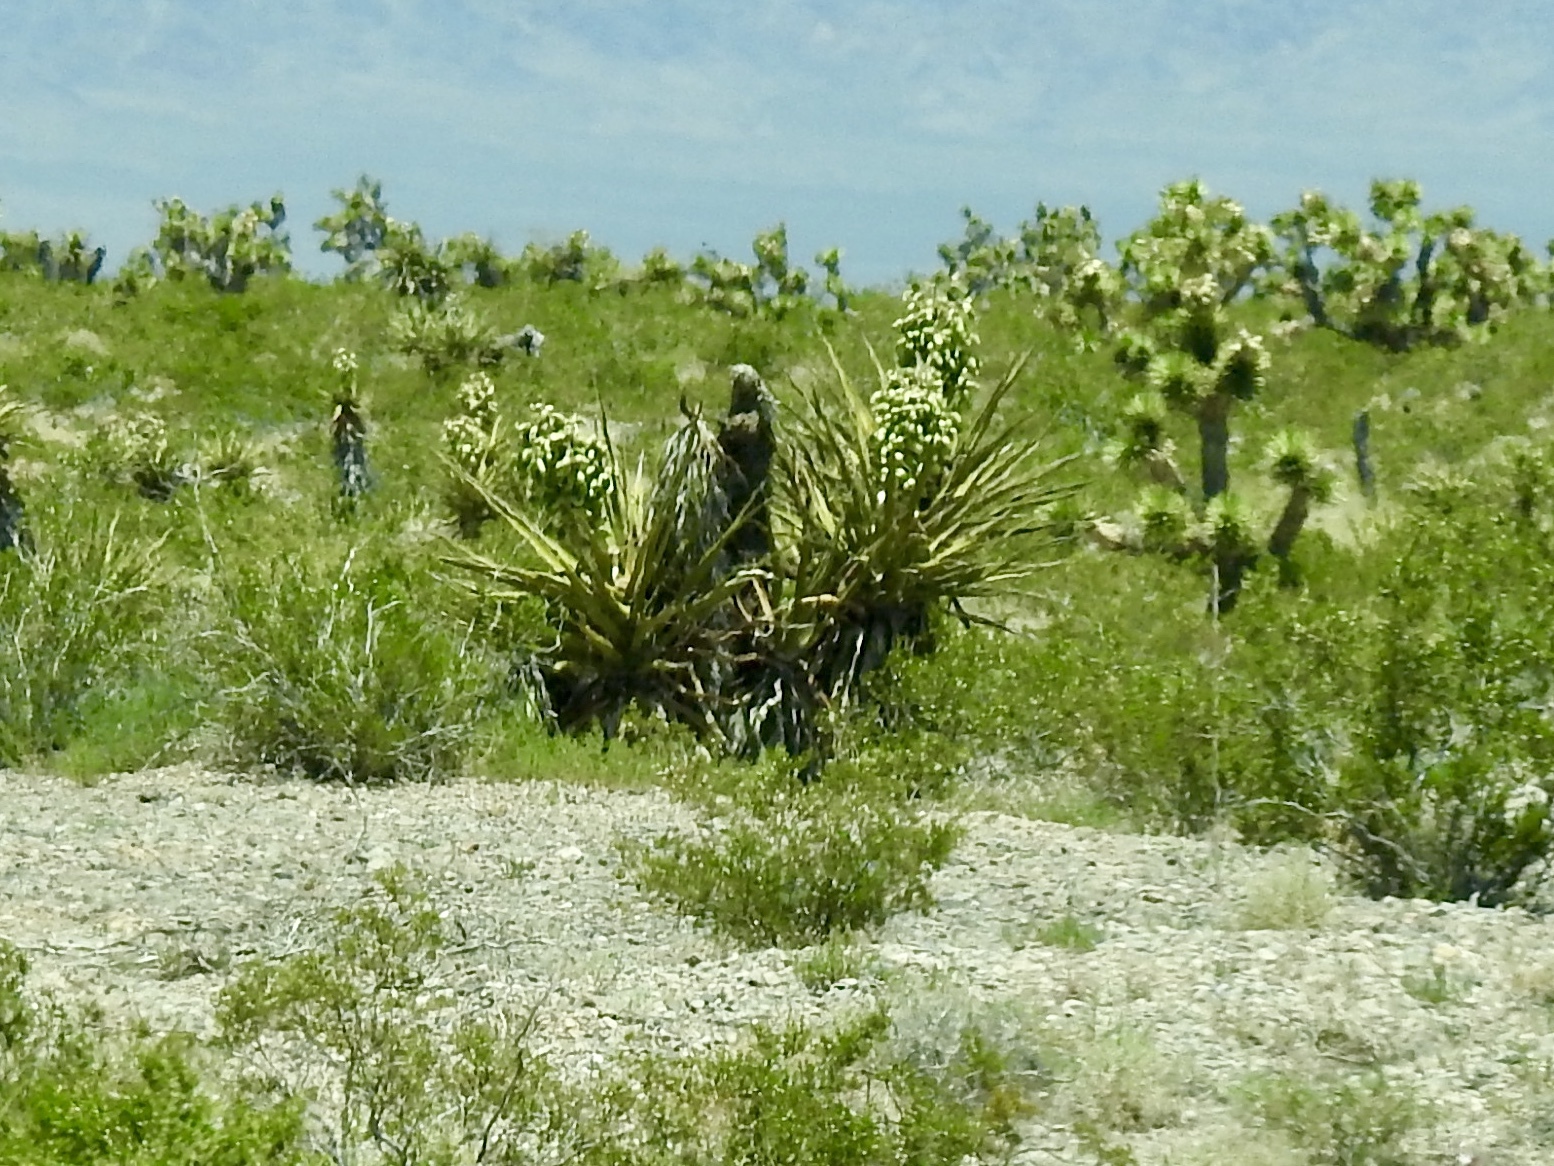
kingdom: Plantae
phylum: Tracheophyta
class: Liliopsida
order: Asparagales
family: Asparagaceae
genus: Yucca
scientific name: Yucca schidigera
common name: Mojave yucca
